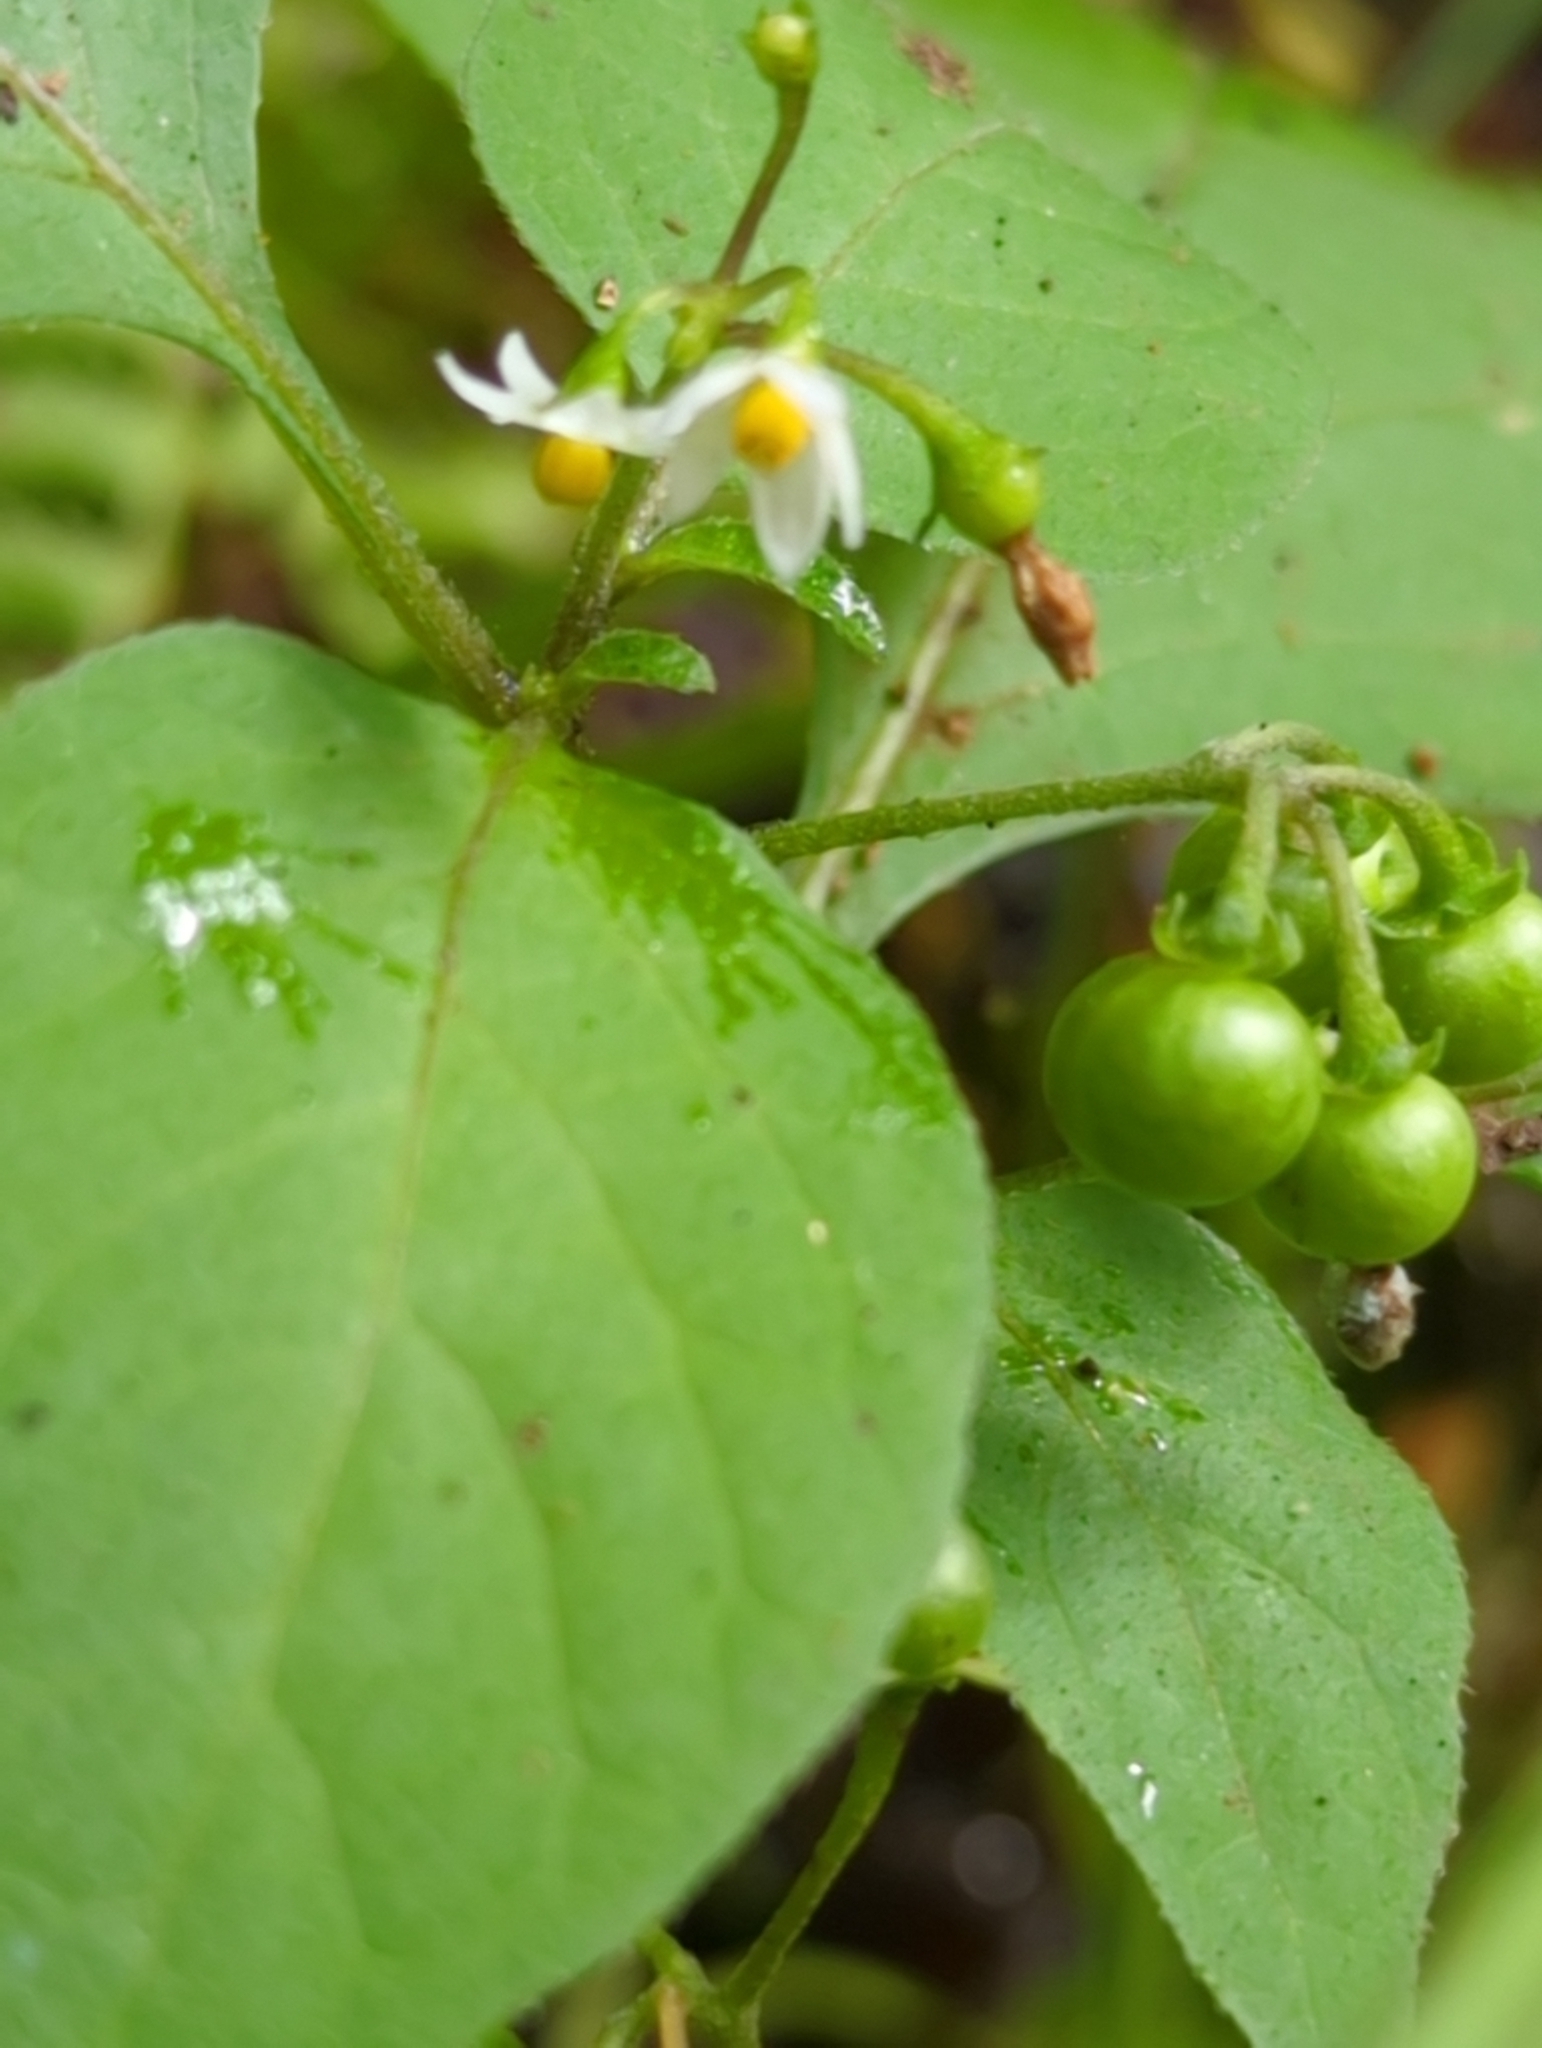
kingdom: Plantae
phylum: Tracheophyta
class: Magnoliopsida
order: Solanales
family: Solanaceae
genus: Solanum
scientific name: Solanum americanum
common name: American black nightshade
